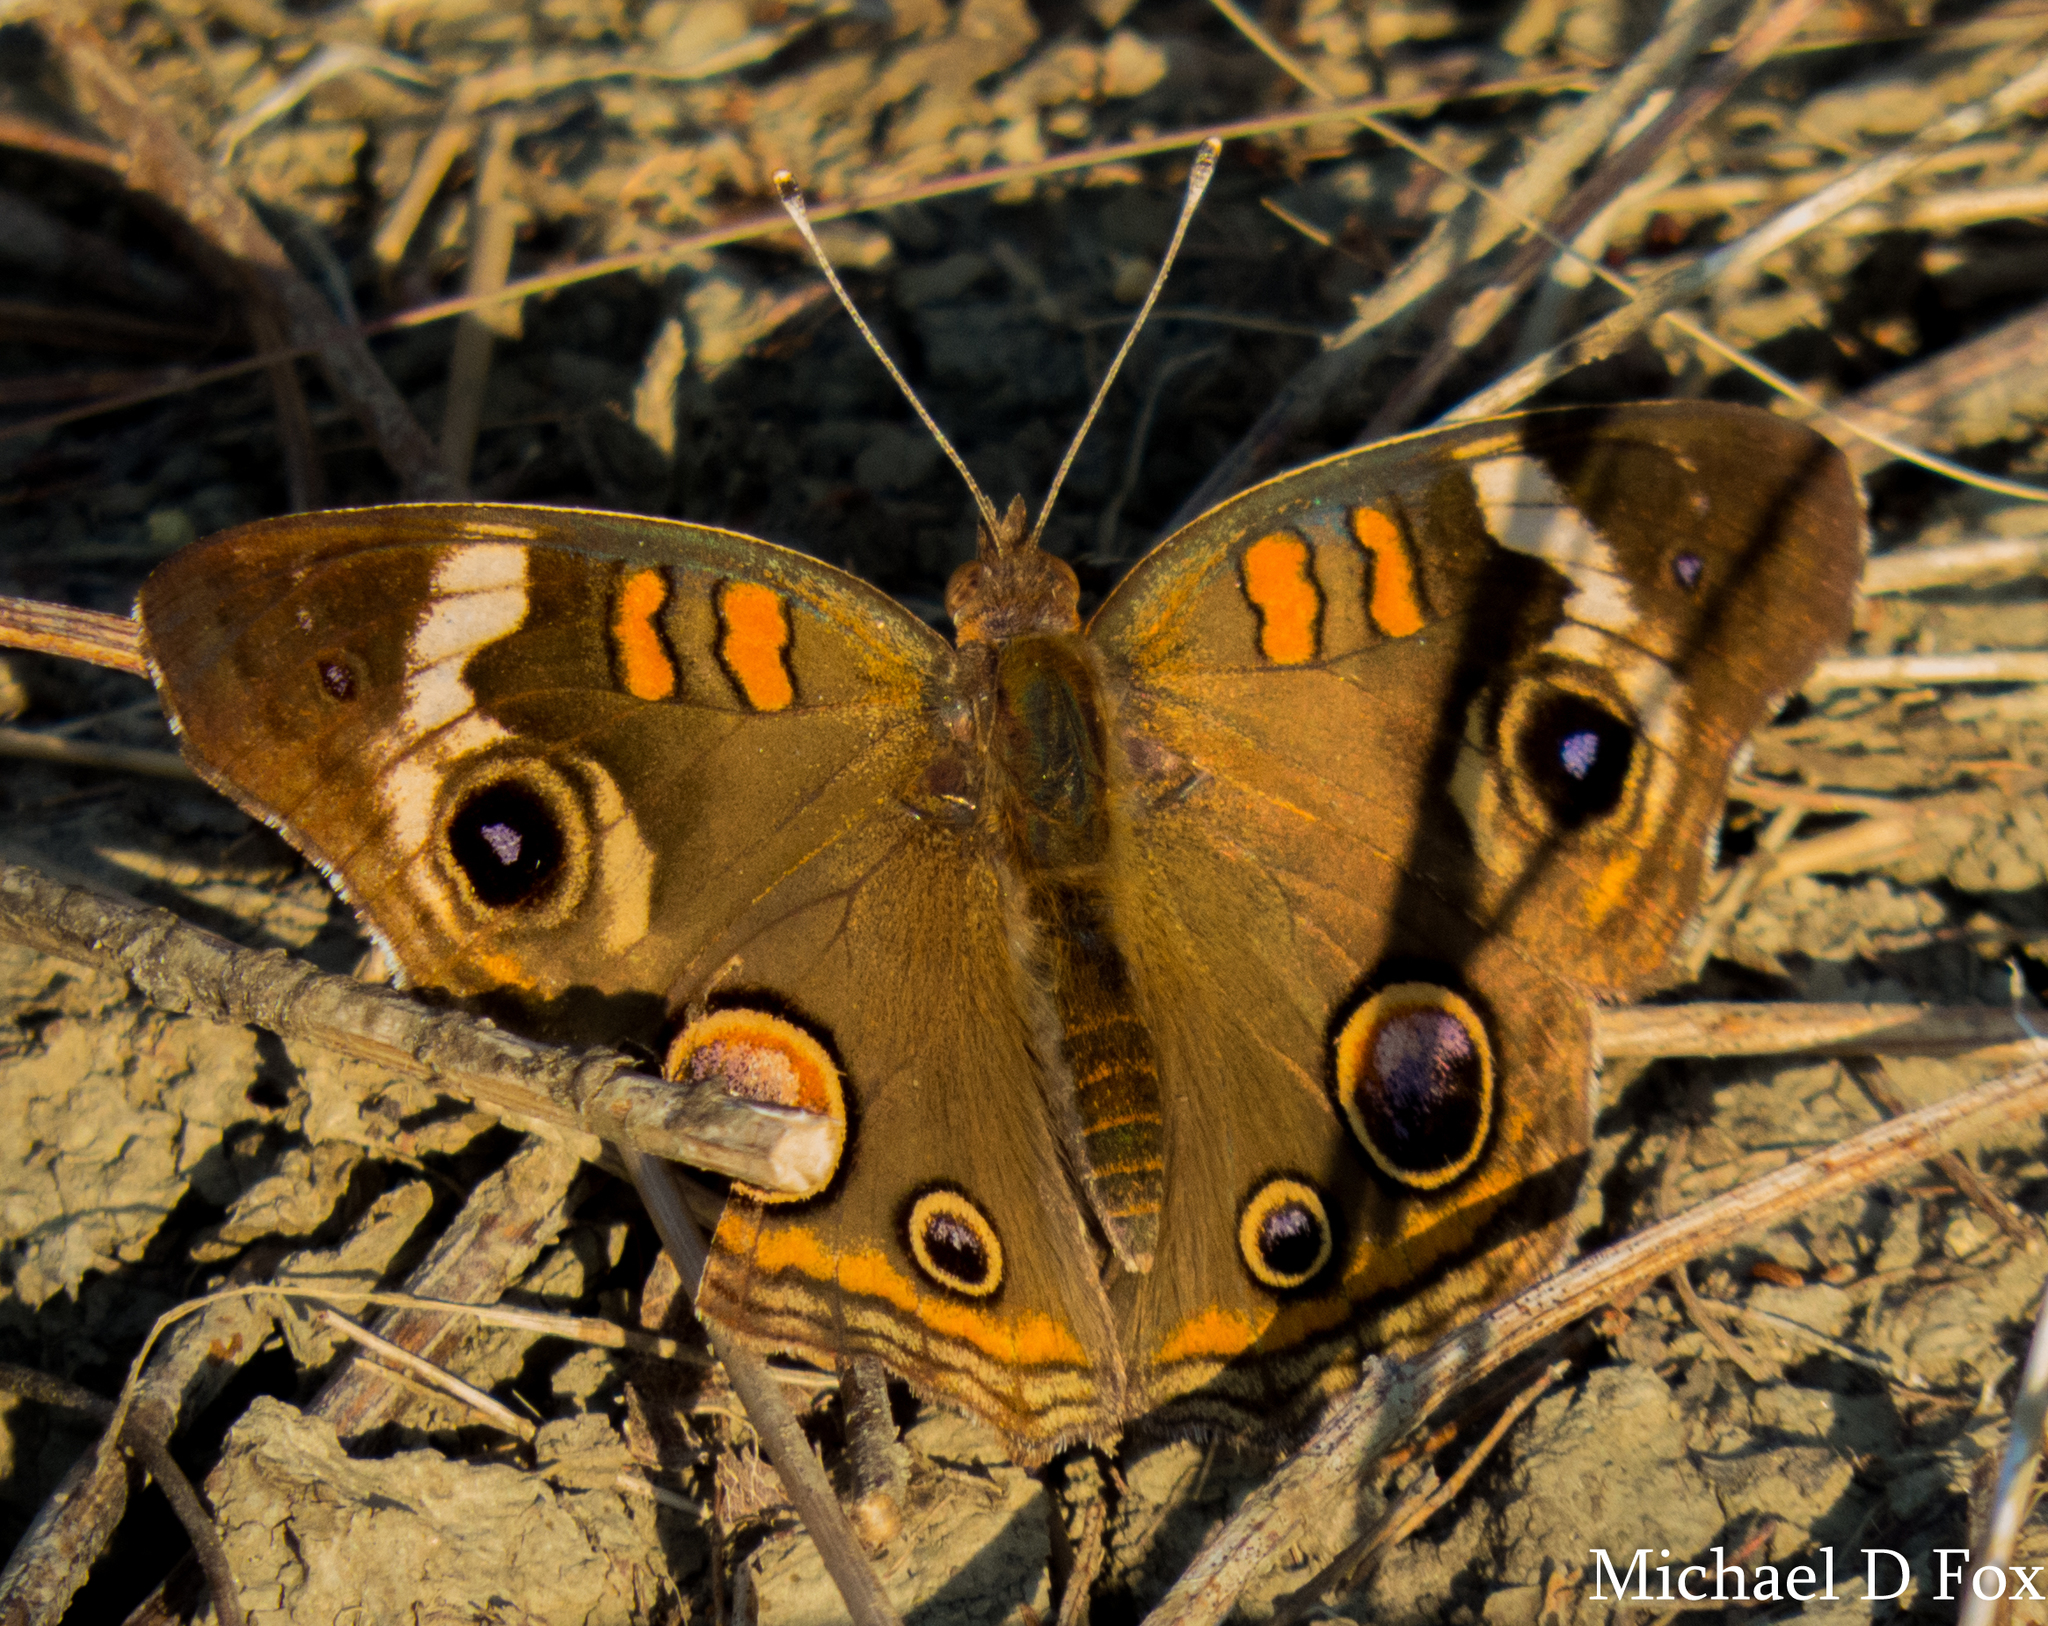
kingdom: Animalia
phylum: Arthropoda
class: Insecta
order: Lepidoptera
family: Nymphalidae
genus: Junonia
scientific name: Junonia coenia
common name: Common buckeye
